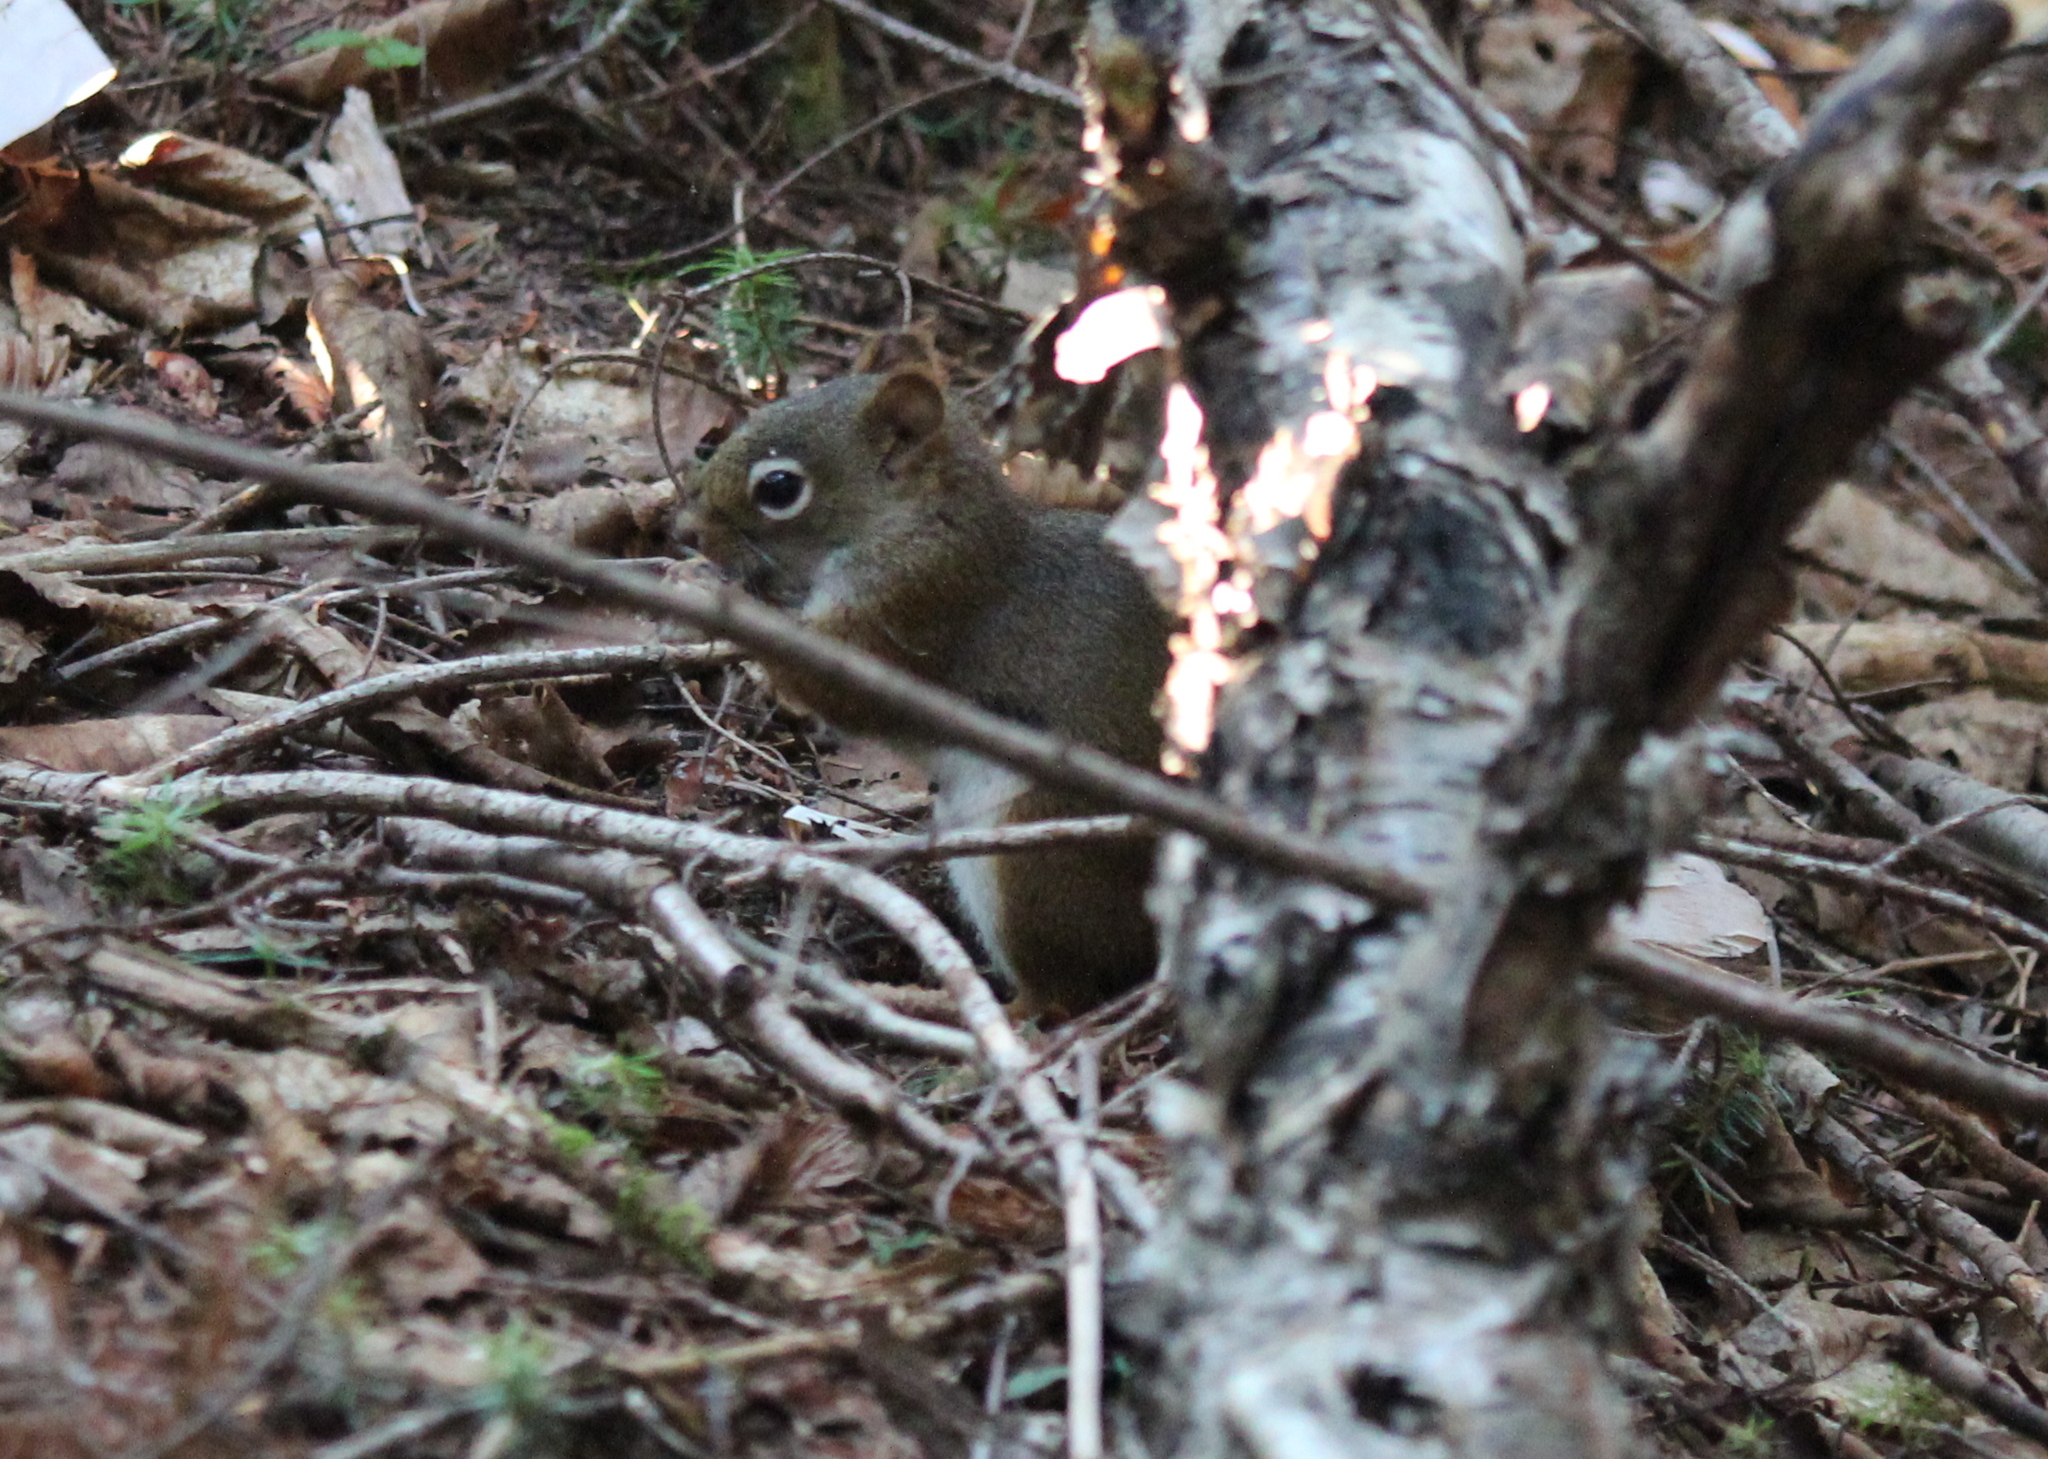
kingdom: Animalia
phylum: Chordata
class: Mammalia
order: Rodentia
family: Sciuridae
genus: Tamiasciurus
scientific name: Tamiasciurus hudsonicus
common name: Red squirrel
